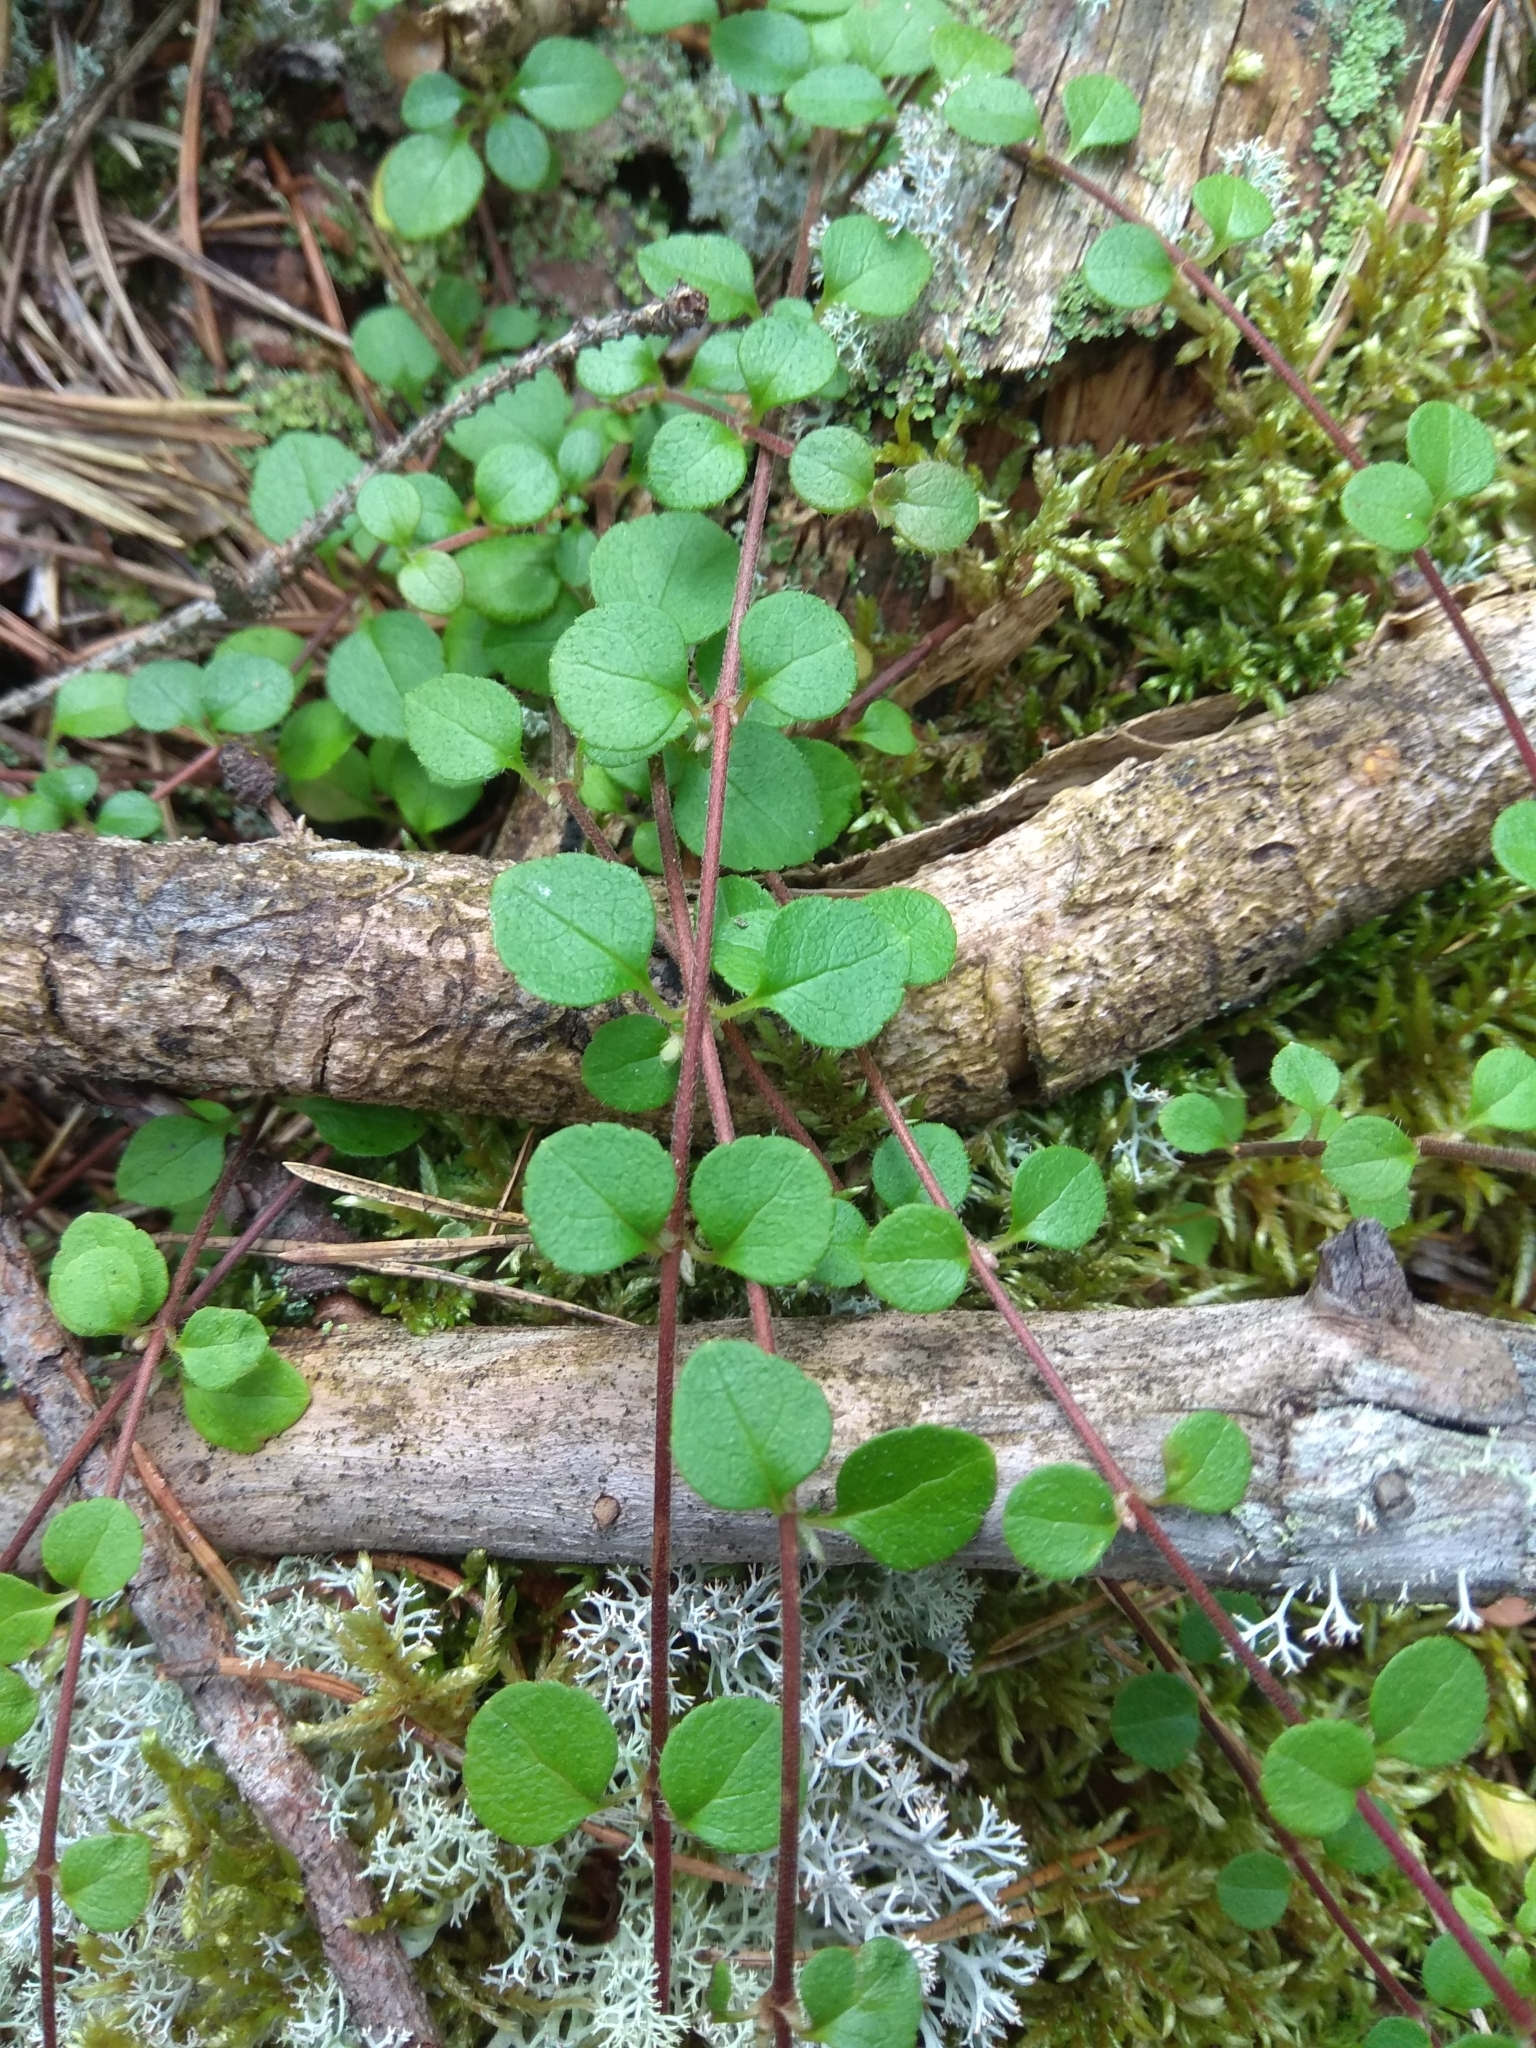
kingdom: Plantae
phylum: Tracheophyta
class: Magnoliopsida
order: Dipsacales
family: Caprifoliaceae
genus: Linnaea
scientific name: Linnaea borealis
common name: Twinflower
